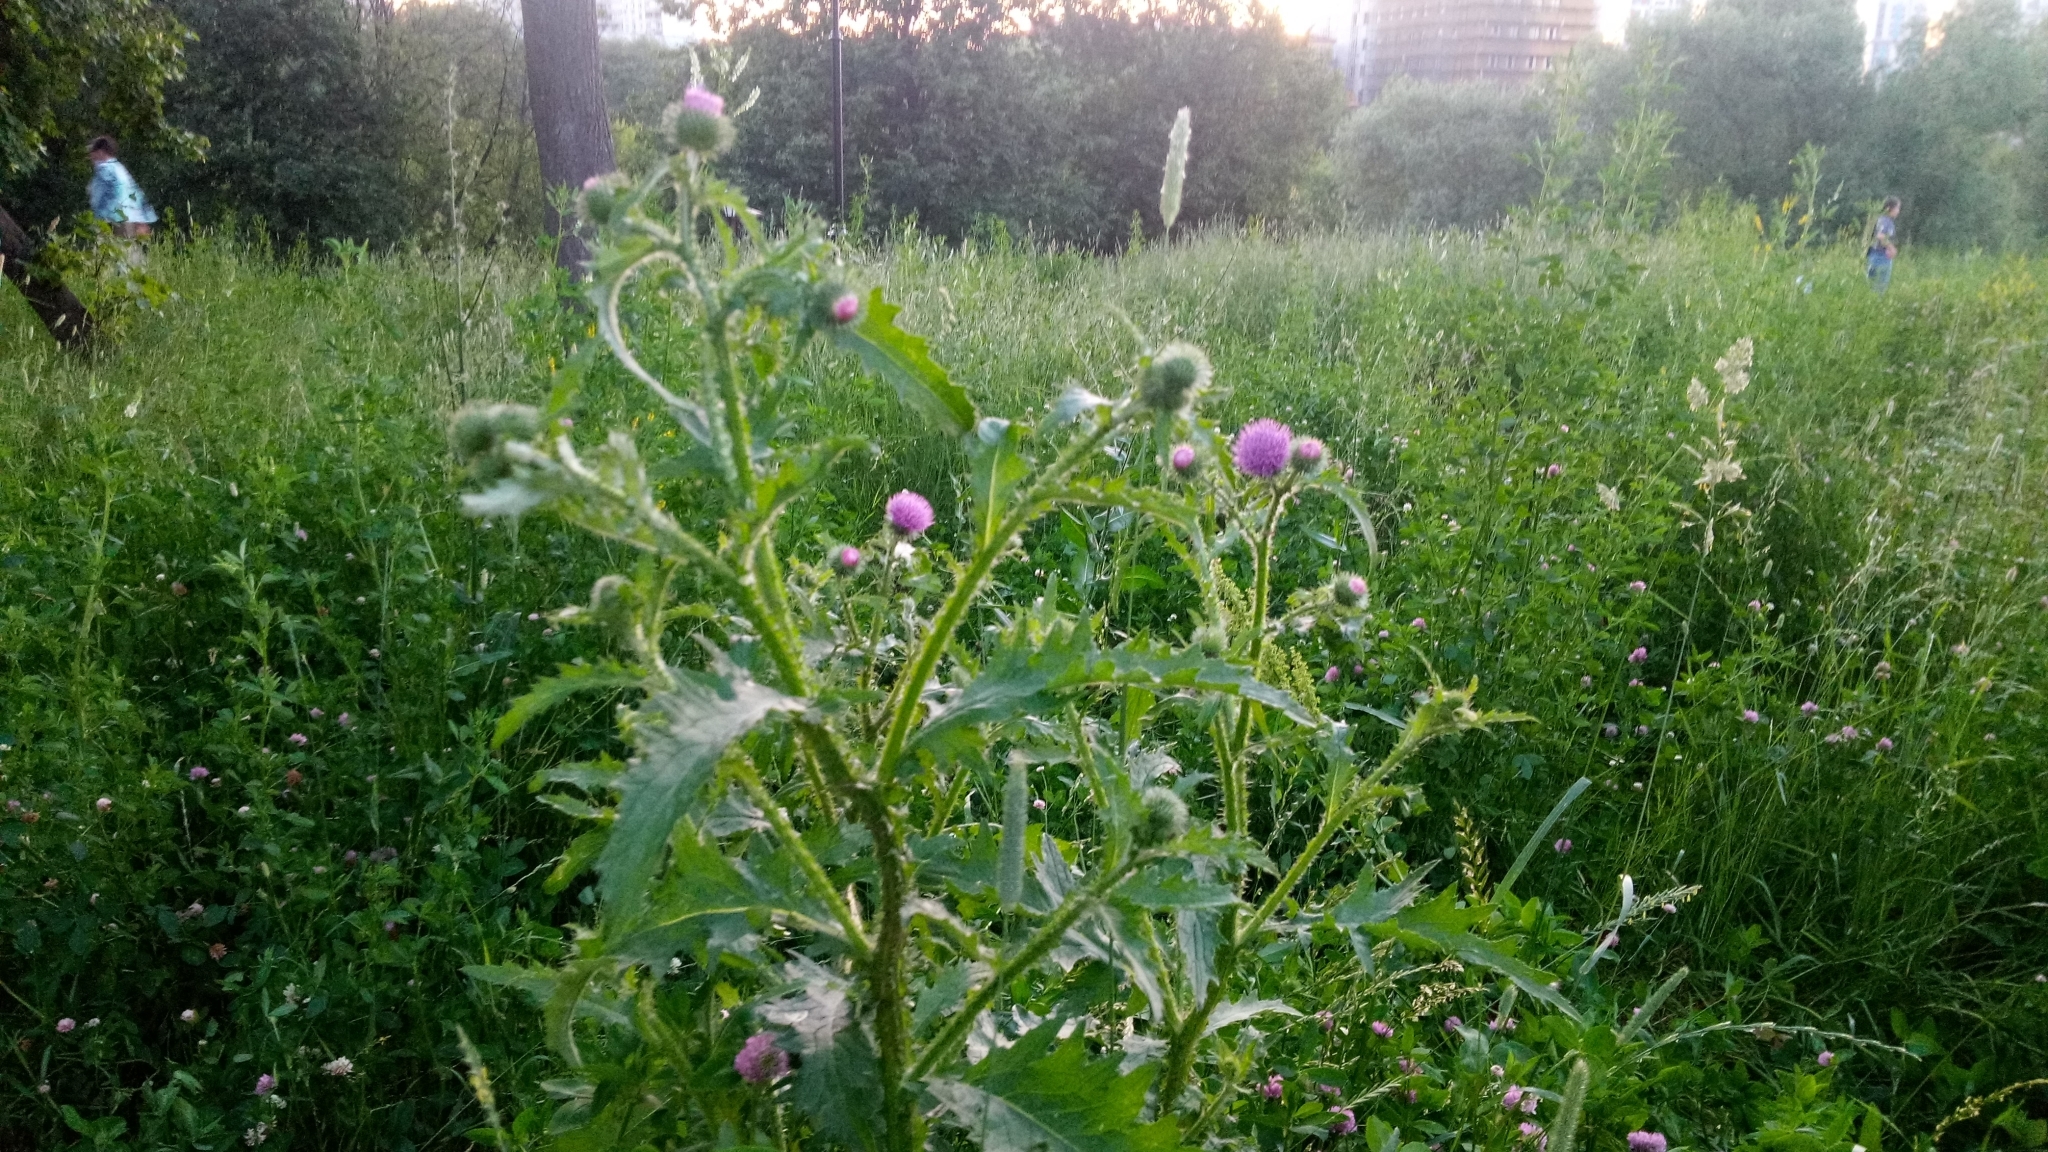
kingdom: Plantae
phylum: Tracheophyta
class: Magnoliopsida
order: Asterales
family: Asteraceae
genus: Carduus
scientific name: Carduus crispus
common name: Welted thistle
